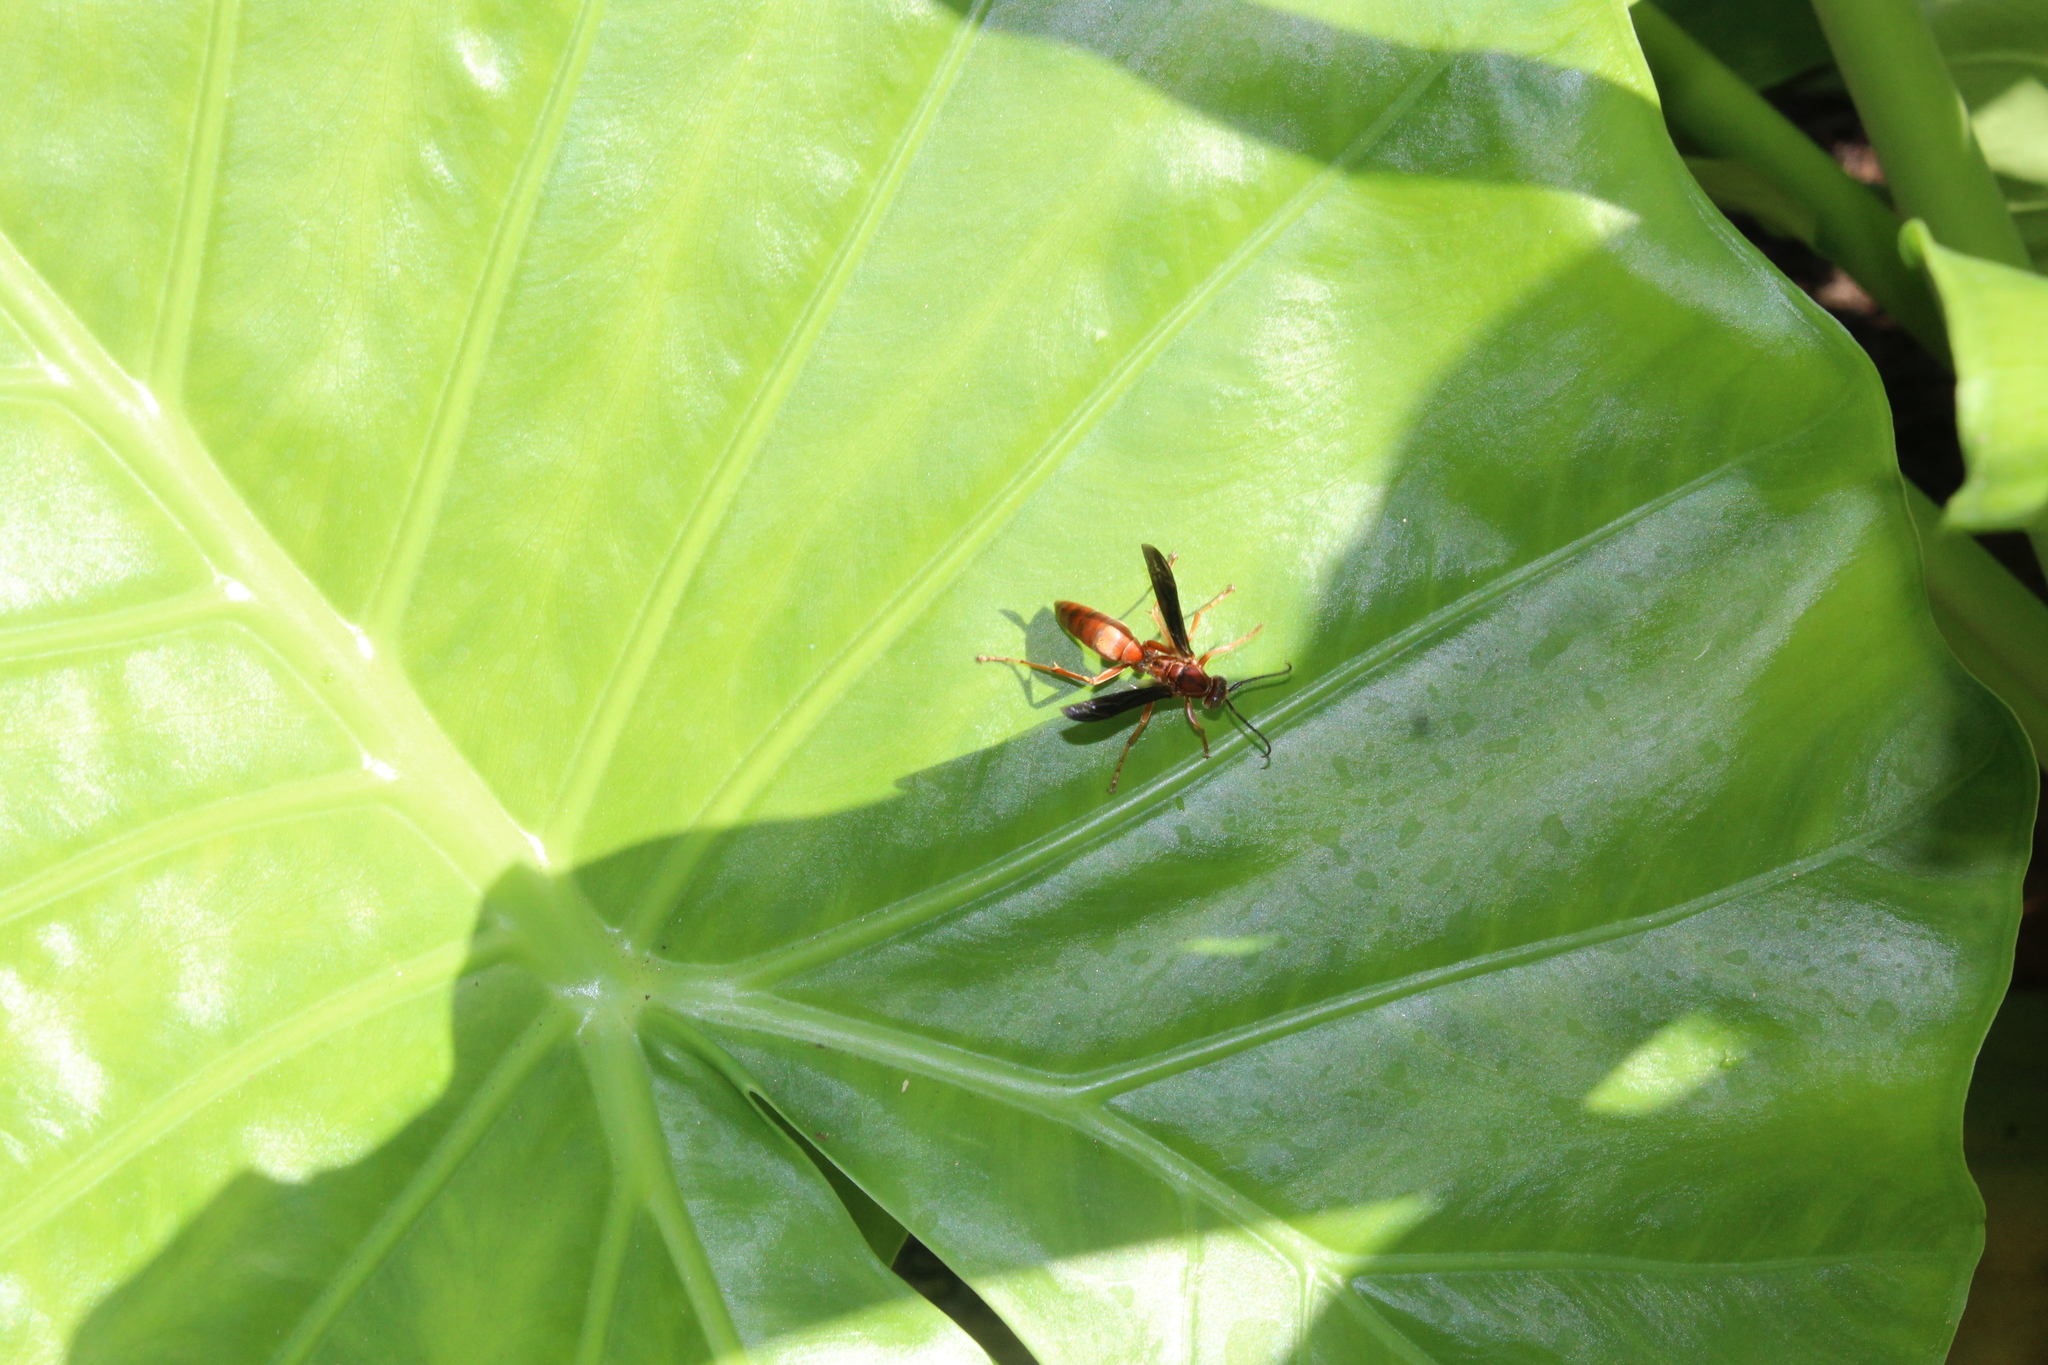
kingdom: Animalia
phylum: Arthropoda
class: Insecta
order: Hymenoptera
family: Vespidae
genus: Fuscopolistes
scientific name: Fuscopolistes
